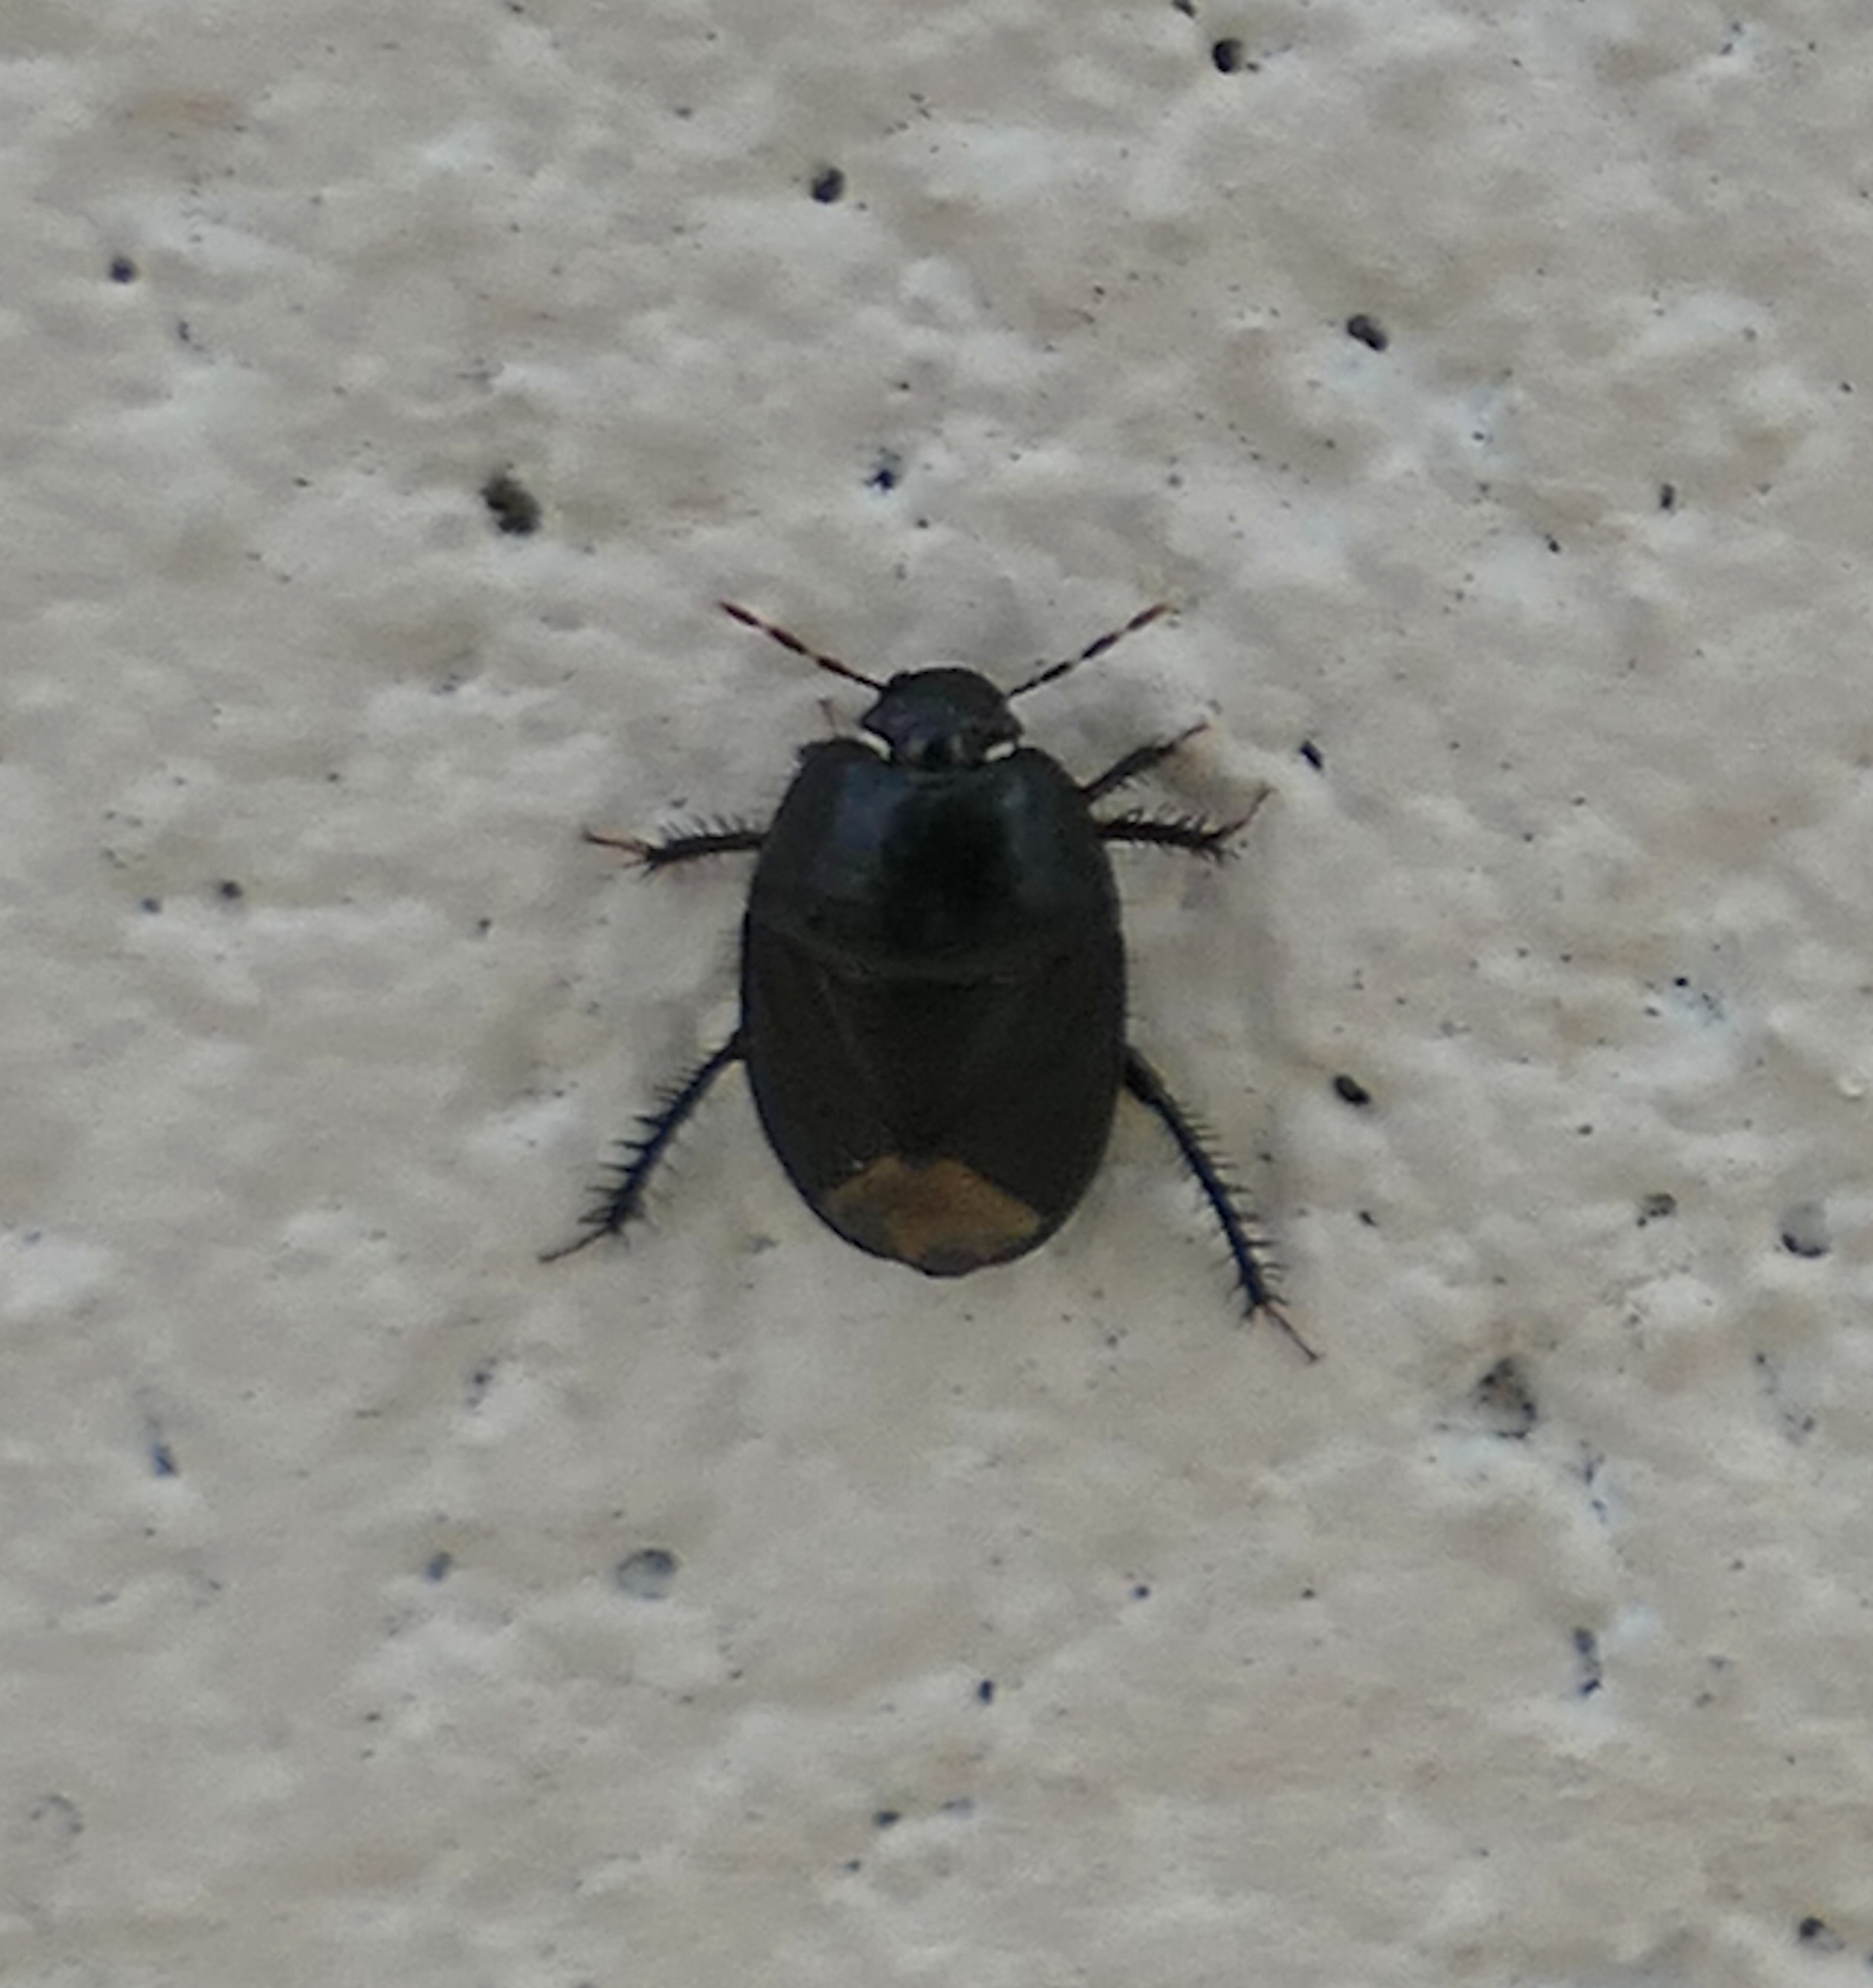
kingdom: Animalia
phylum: Arthropoda
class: Insecta
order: Hemiptera
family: Cydnidae
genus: Pangaeus
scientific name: Pangaeus bilineatus
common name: Burrower bug
